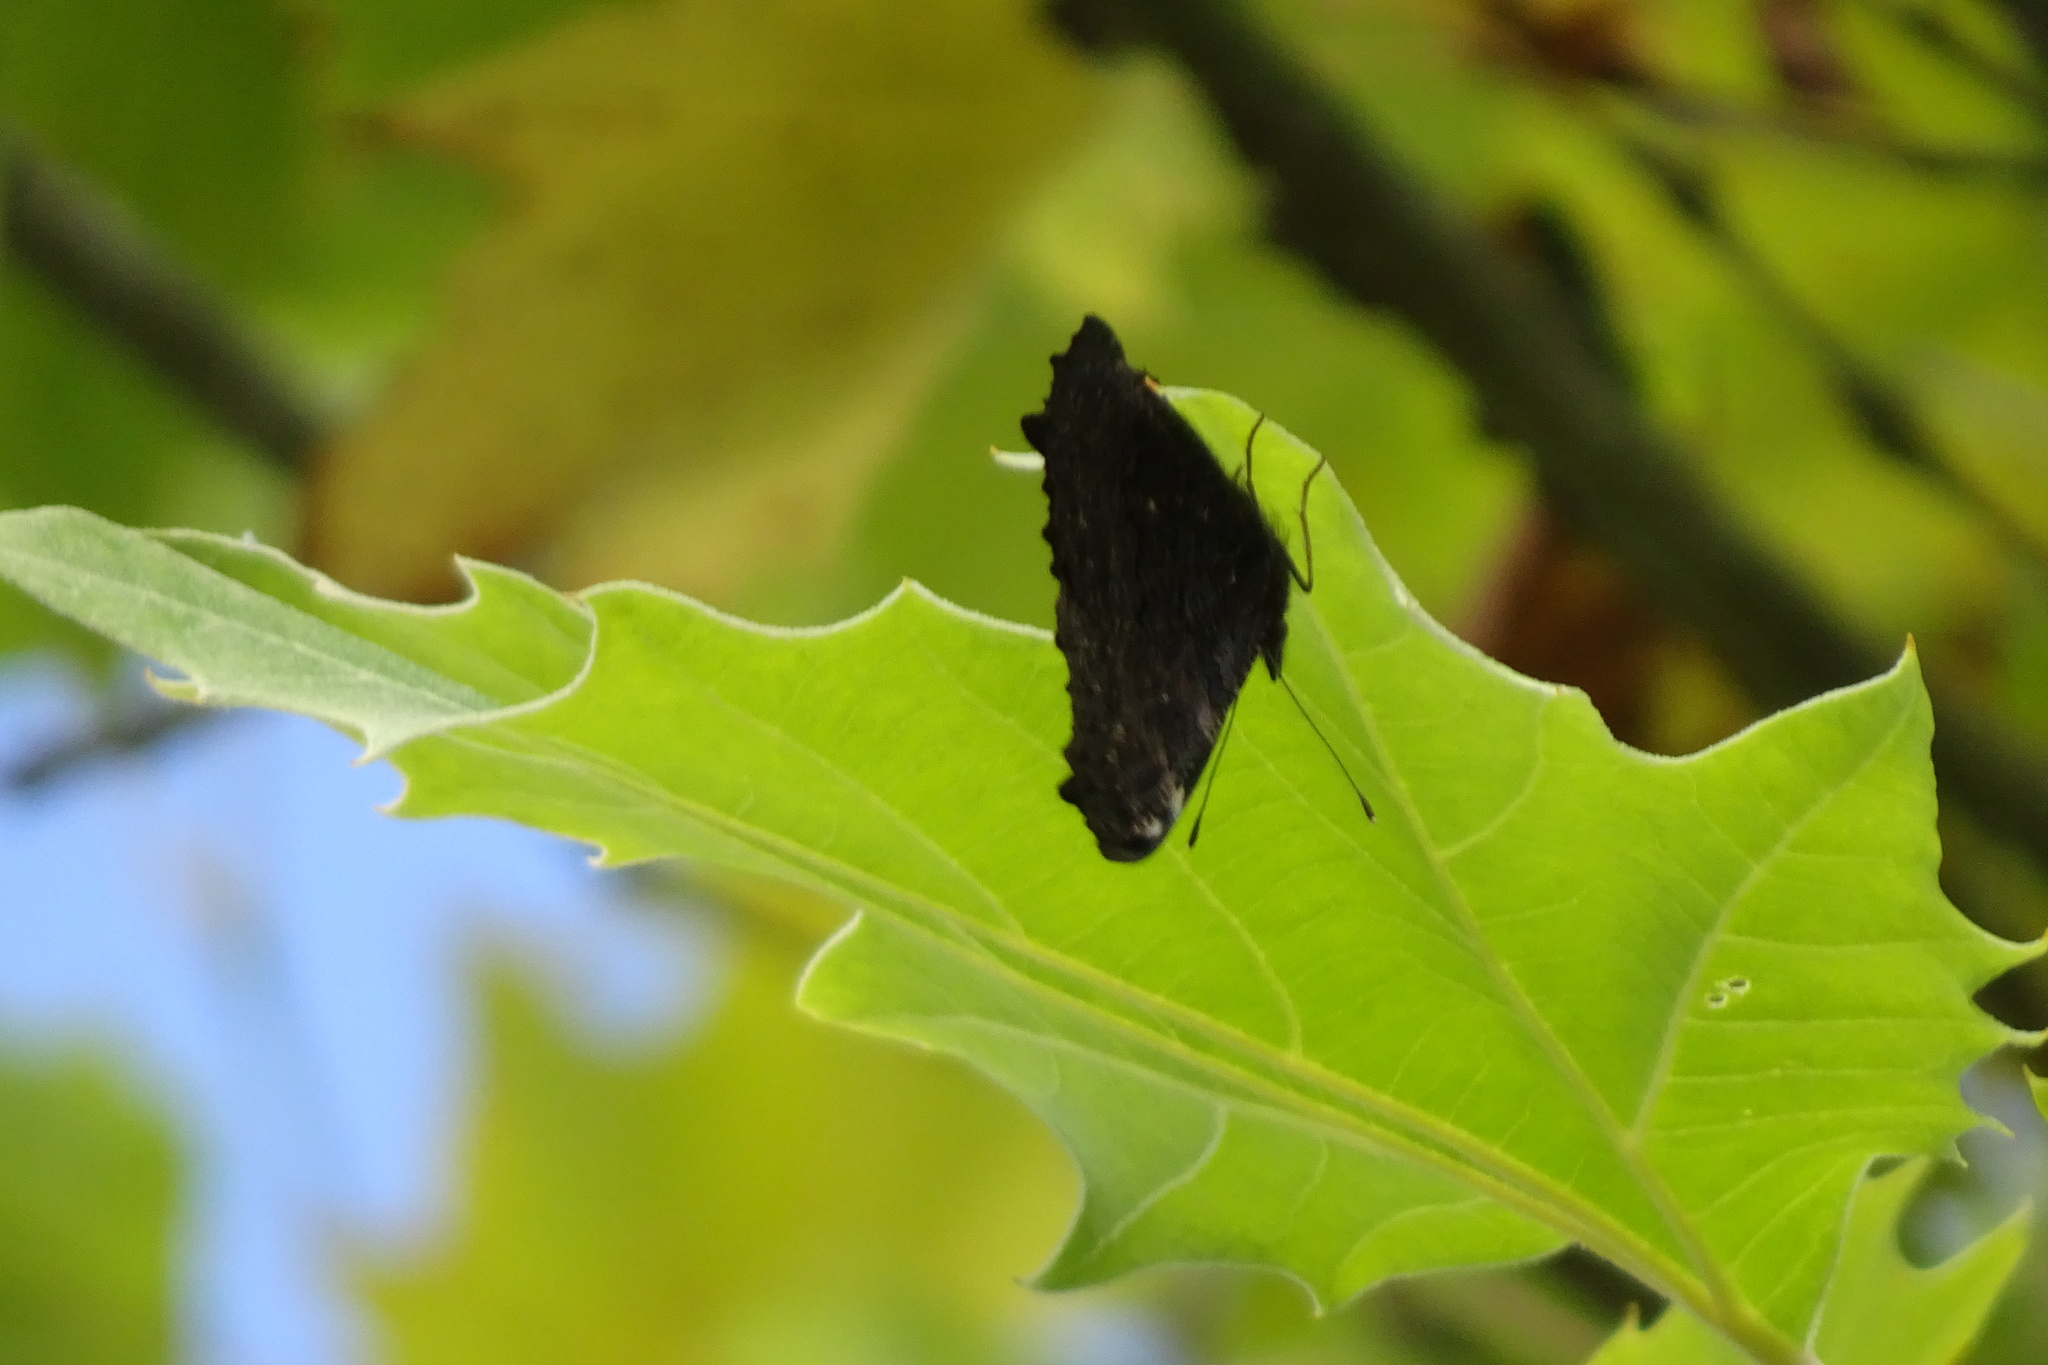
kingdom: Animalia
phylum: Arthropoda
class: Insecta
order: Lepidoptera
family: Nymphalidae
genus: Aglais
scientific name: Aglais io
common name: Peacock
